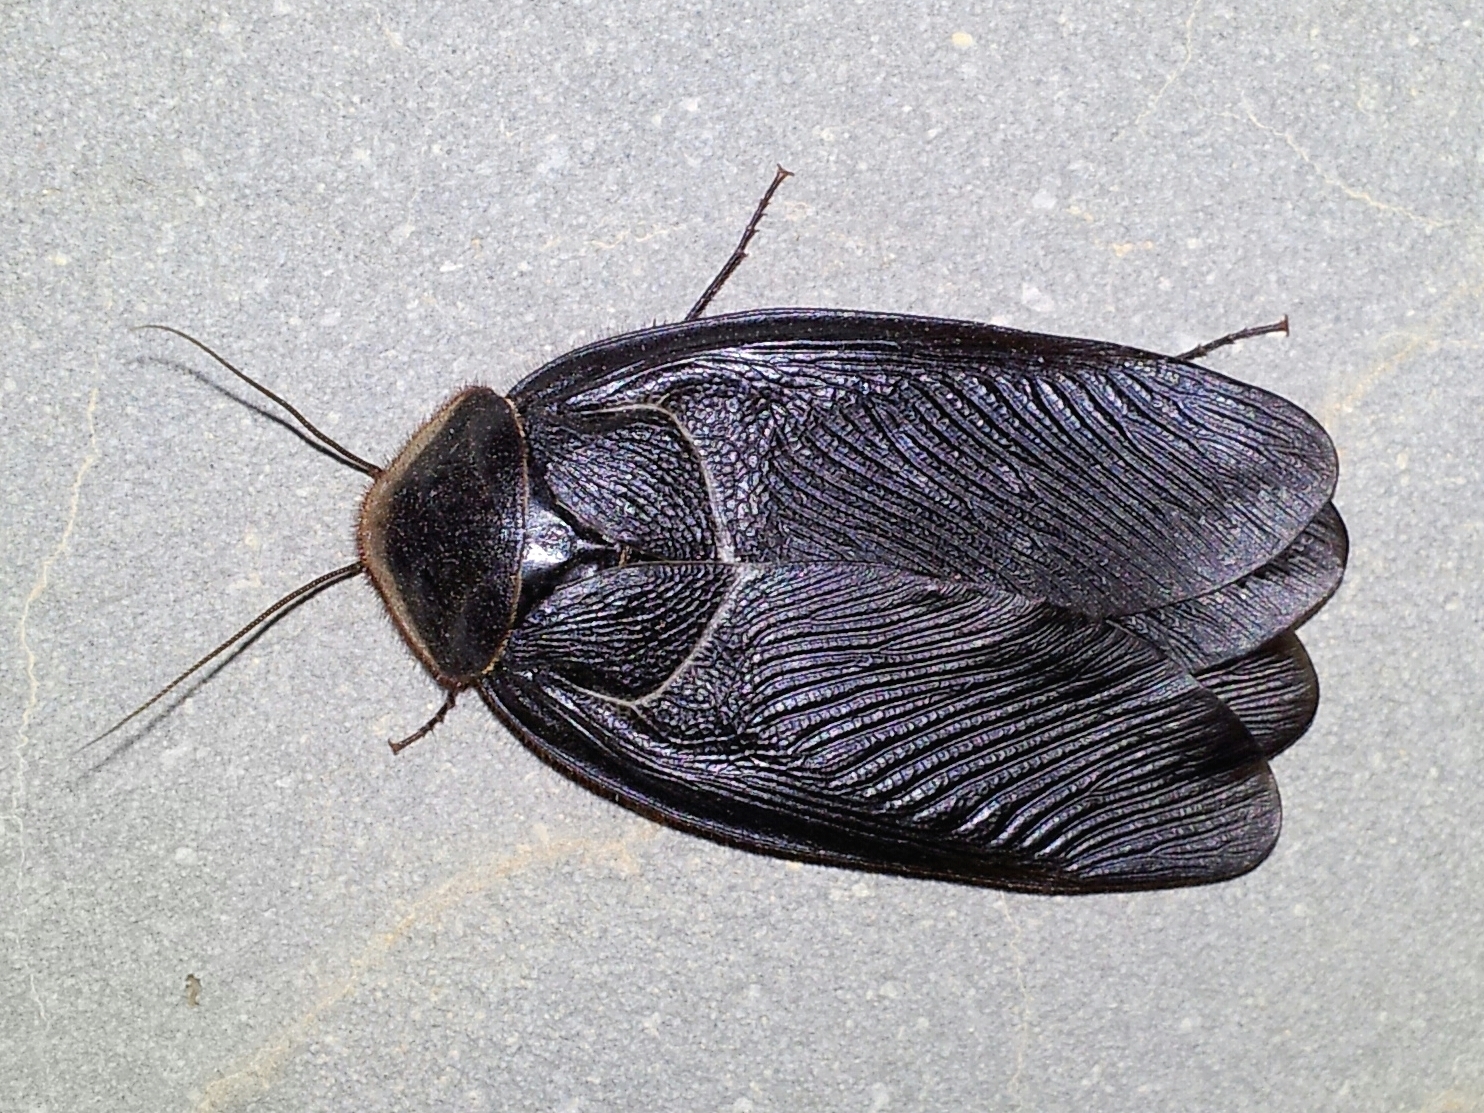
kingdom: Animalia
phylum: Arthropoda
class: Insecta
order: Blattodea
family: Corydiidae
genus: Polyphaga
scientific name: Polyphaga aegyptiaca
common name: Egyptian cockroach
